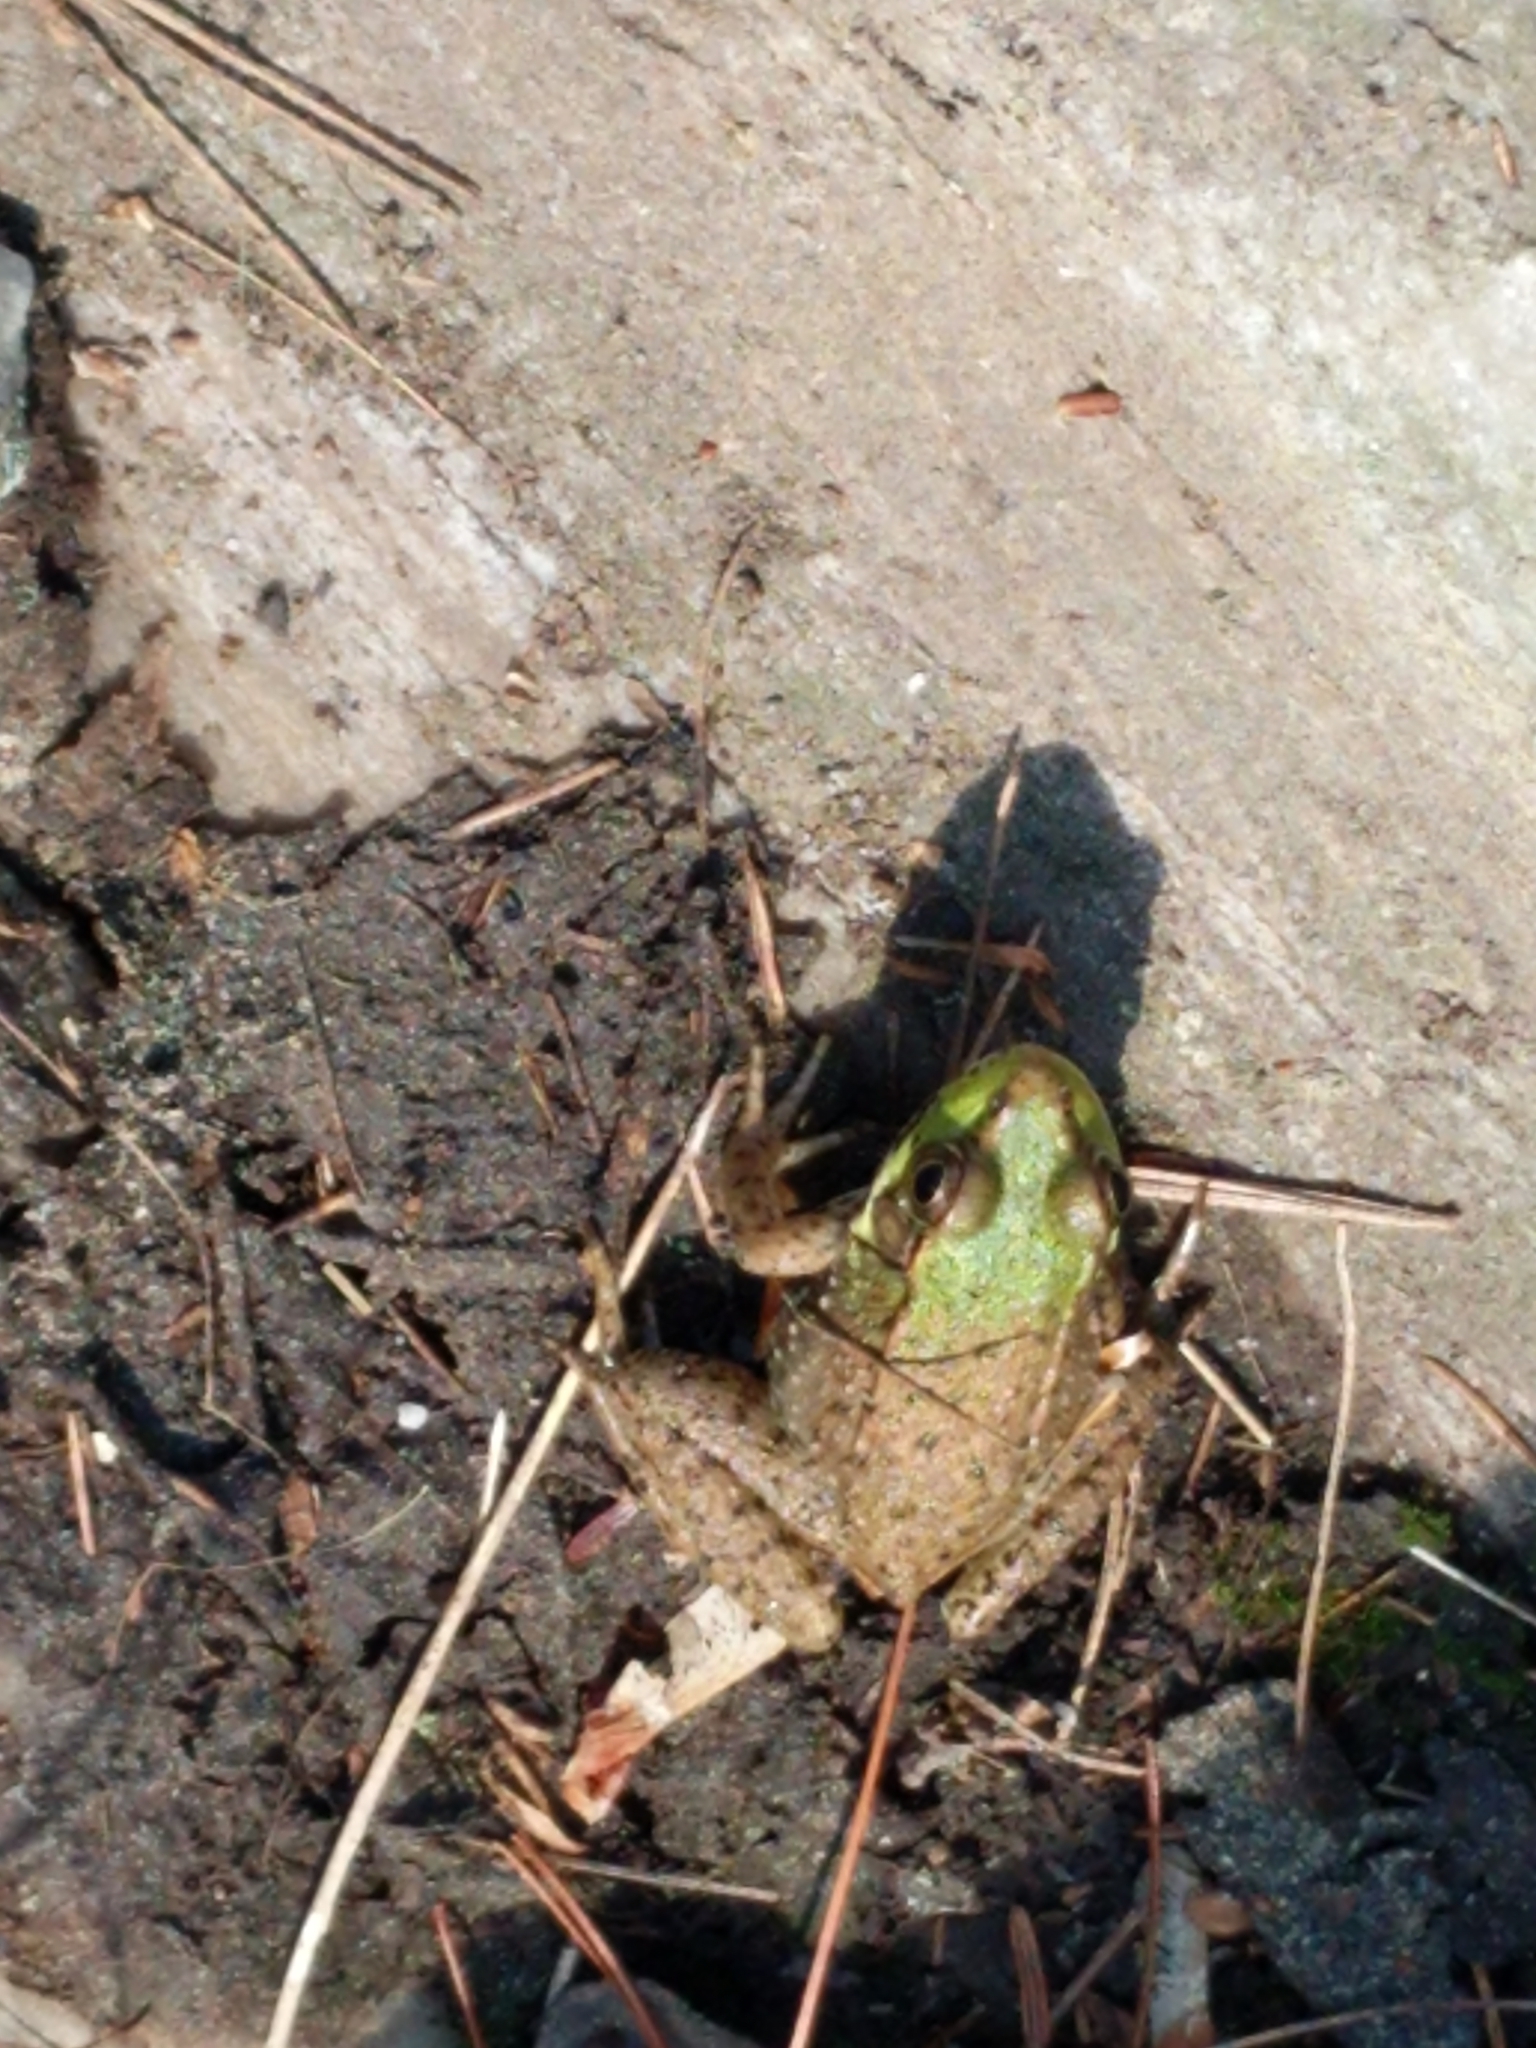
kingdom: Animalia
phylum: Chordata
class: Amphibia
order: Anura
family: Ranidae
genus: Lithobates
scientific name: Lithobates clamitans
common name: Green frog
